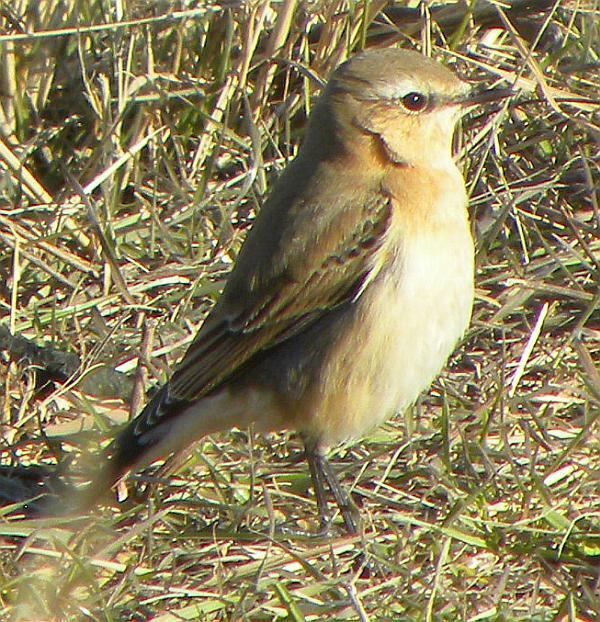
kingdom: Animalia
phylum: Chordata
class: Aves
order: Passeriformes
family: Muscicapidae
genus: Oenanthe
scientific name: Oenanthe oenanthe
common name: Northern wheatear
